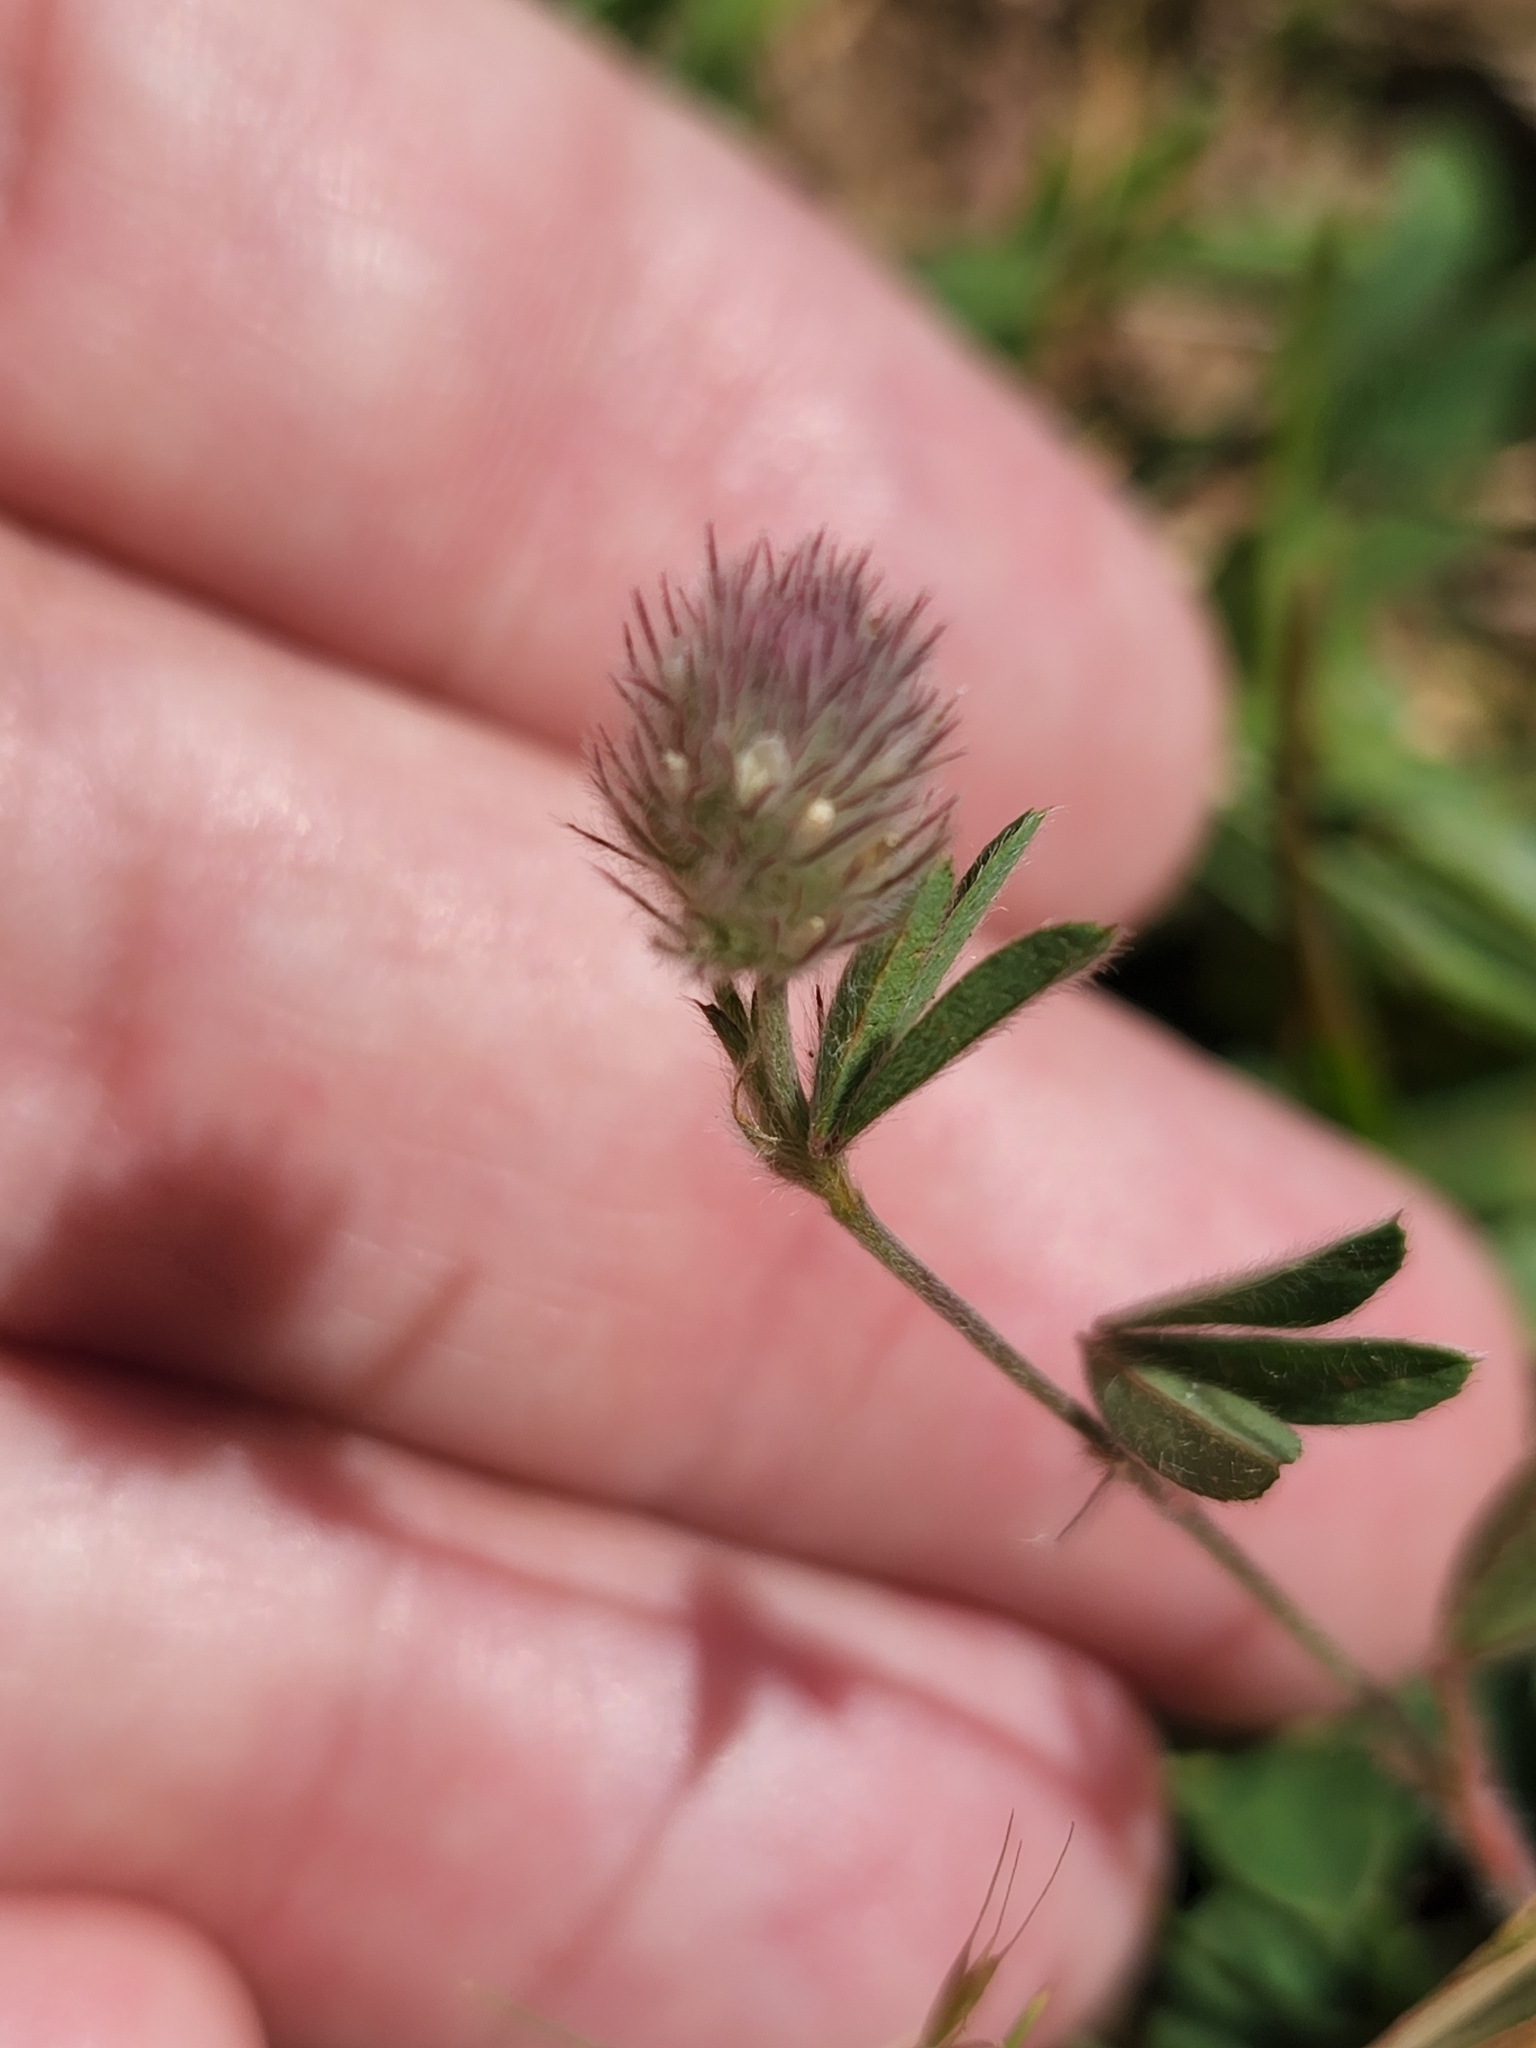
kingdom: Plantae
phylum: Tracheophyta
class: Magnoliopsida
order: Fabales
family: Fabaceae
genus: Trifolium
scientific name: Trifolium arvense
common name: Hare's-foot clover
